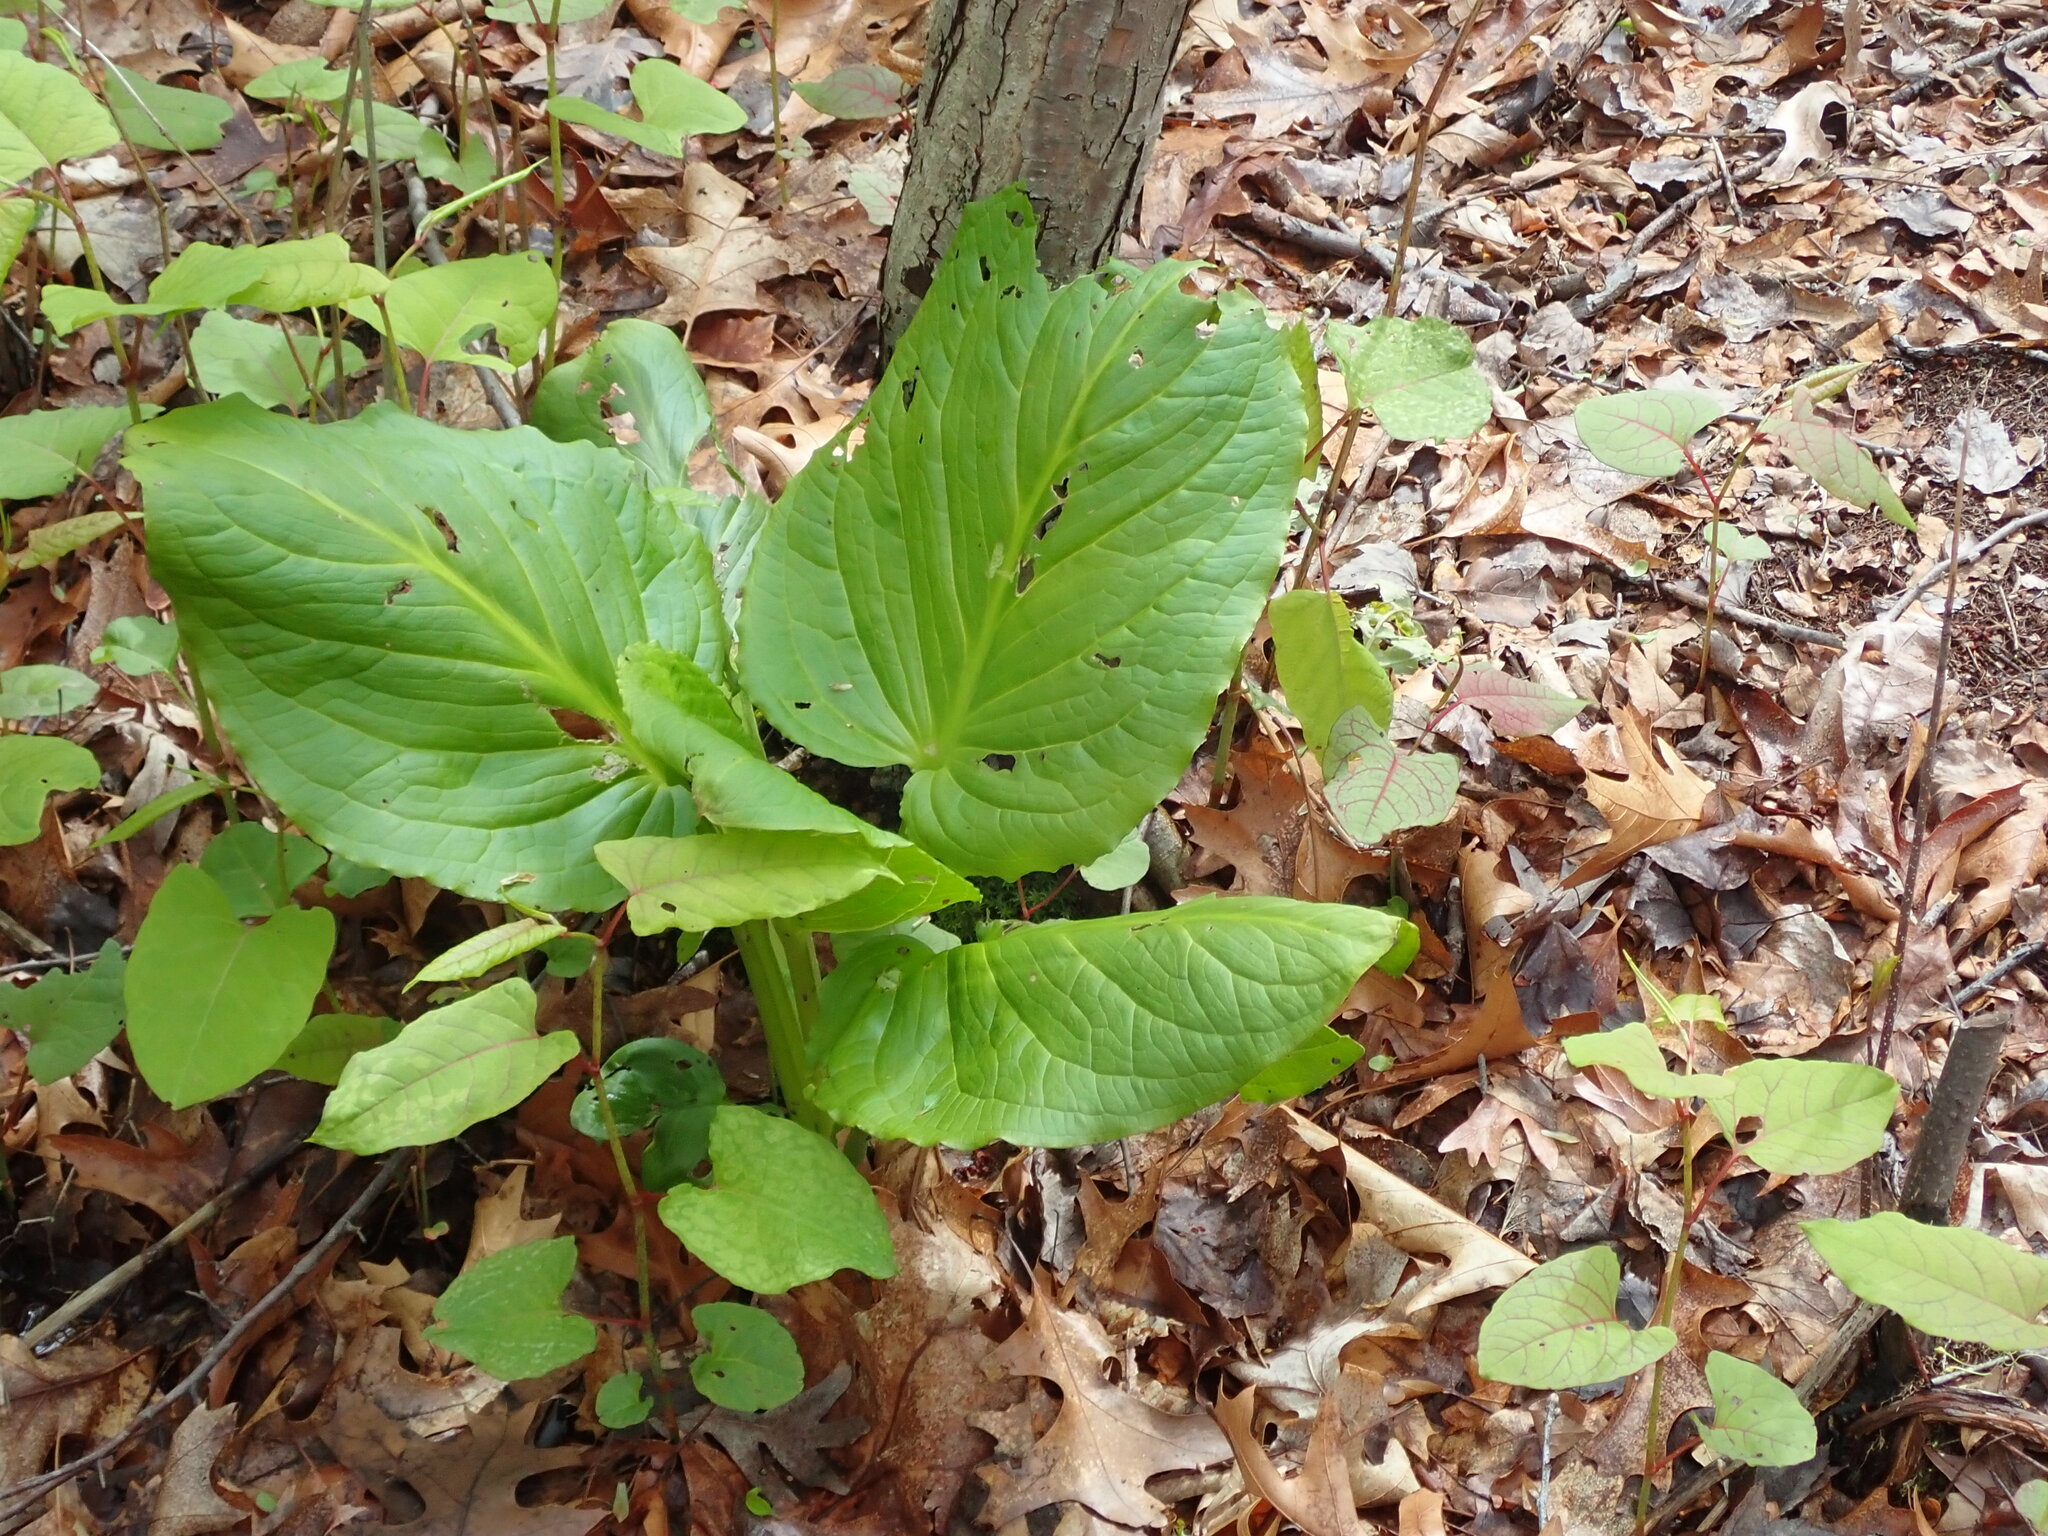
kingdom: Plantae
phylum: Tracheophyta
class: Liliopsida
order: Alismatales
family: Araceae
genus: Symplocarpus
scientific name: Symplocarpus foetidus
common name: Eastern skunk cabbage
